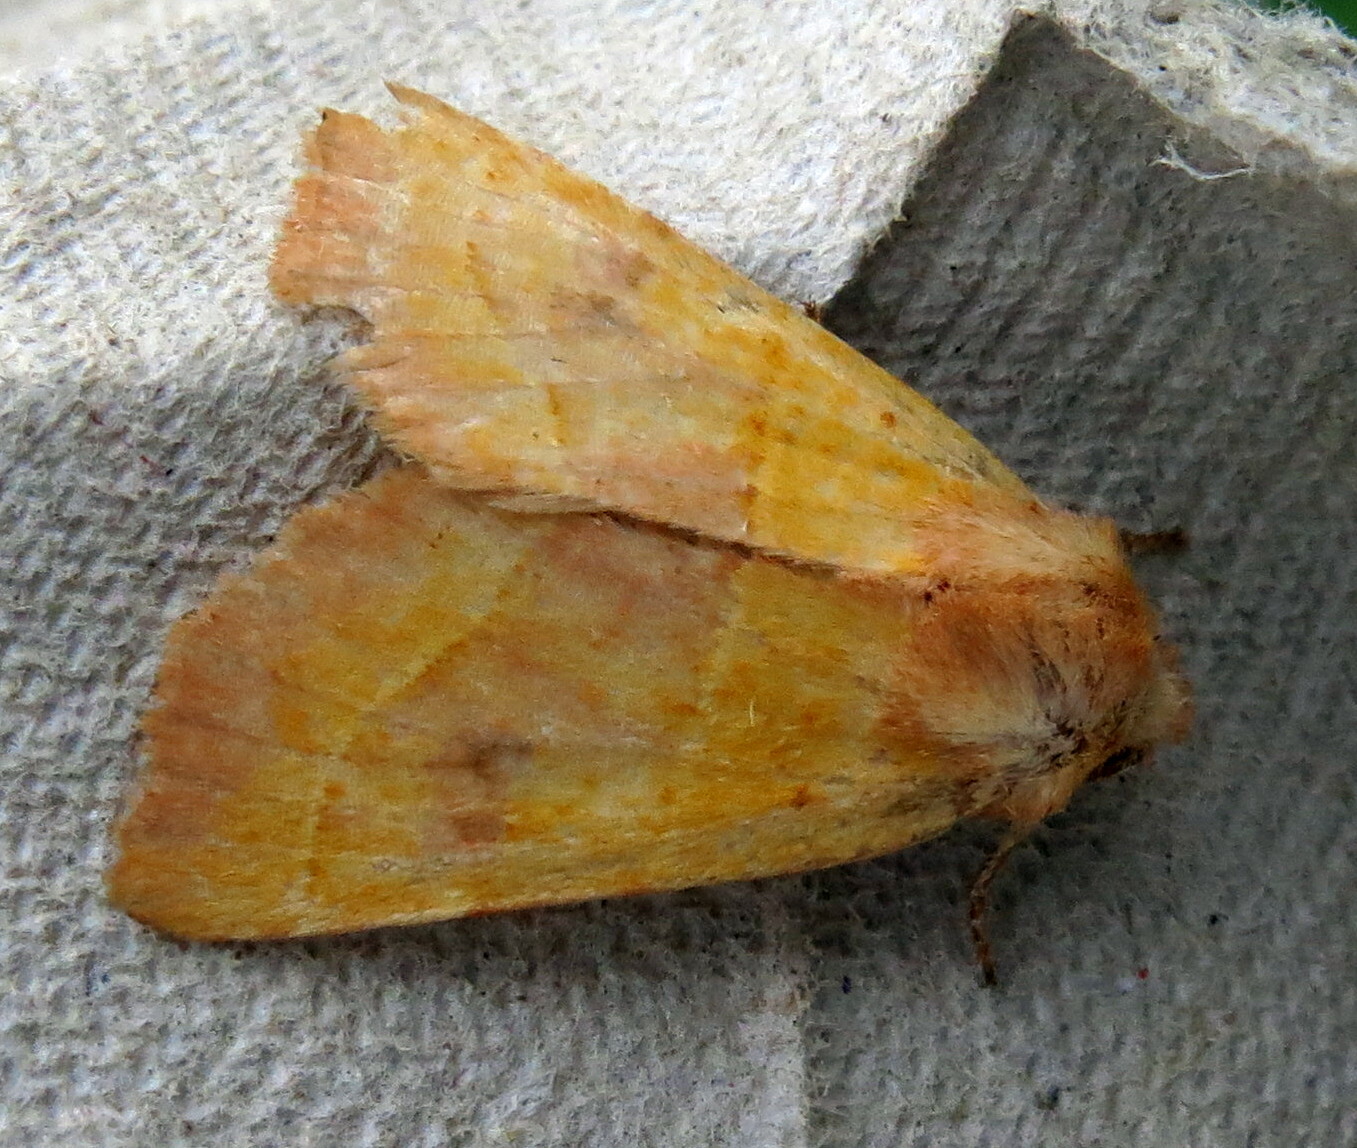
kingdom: Animalia
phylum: Arthropoda
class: Insecta
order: Lepidoptera
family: Noctuidae
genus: Atethmia
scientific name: Atethmia centrago
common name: Centre-barred sallow
